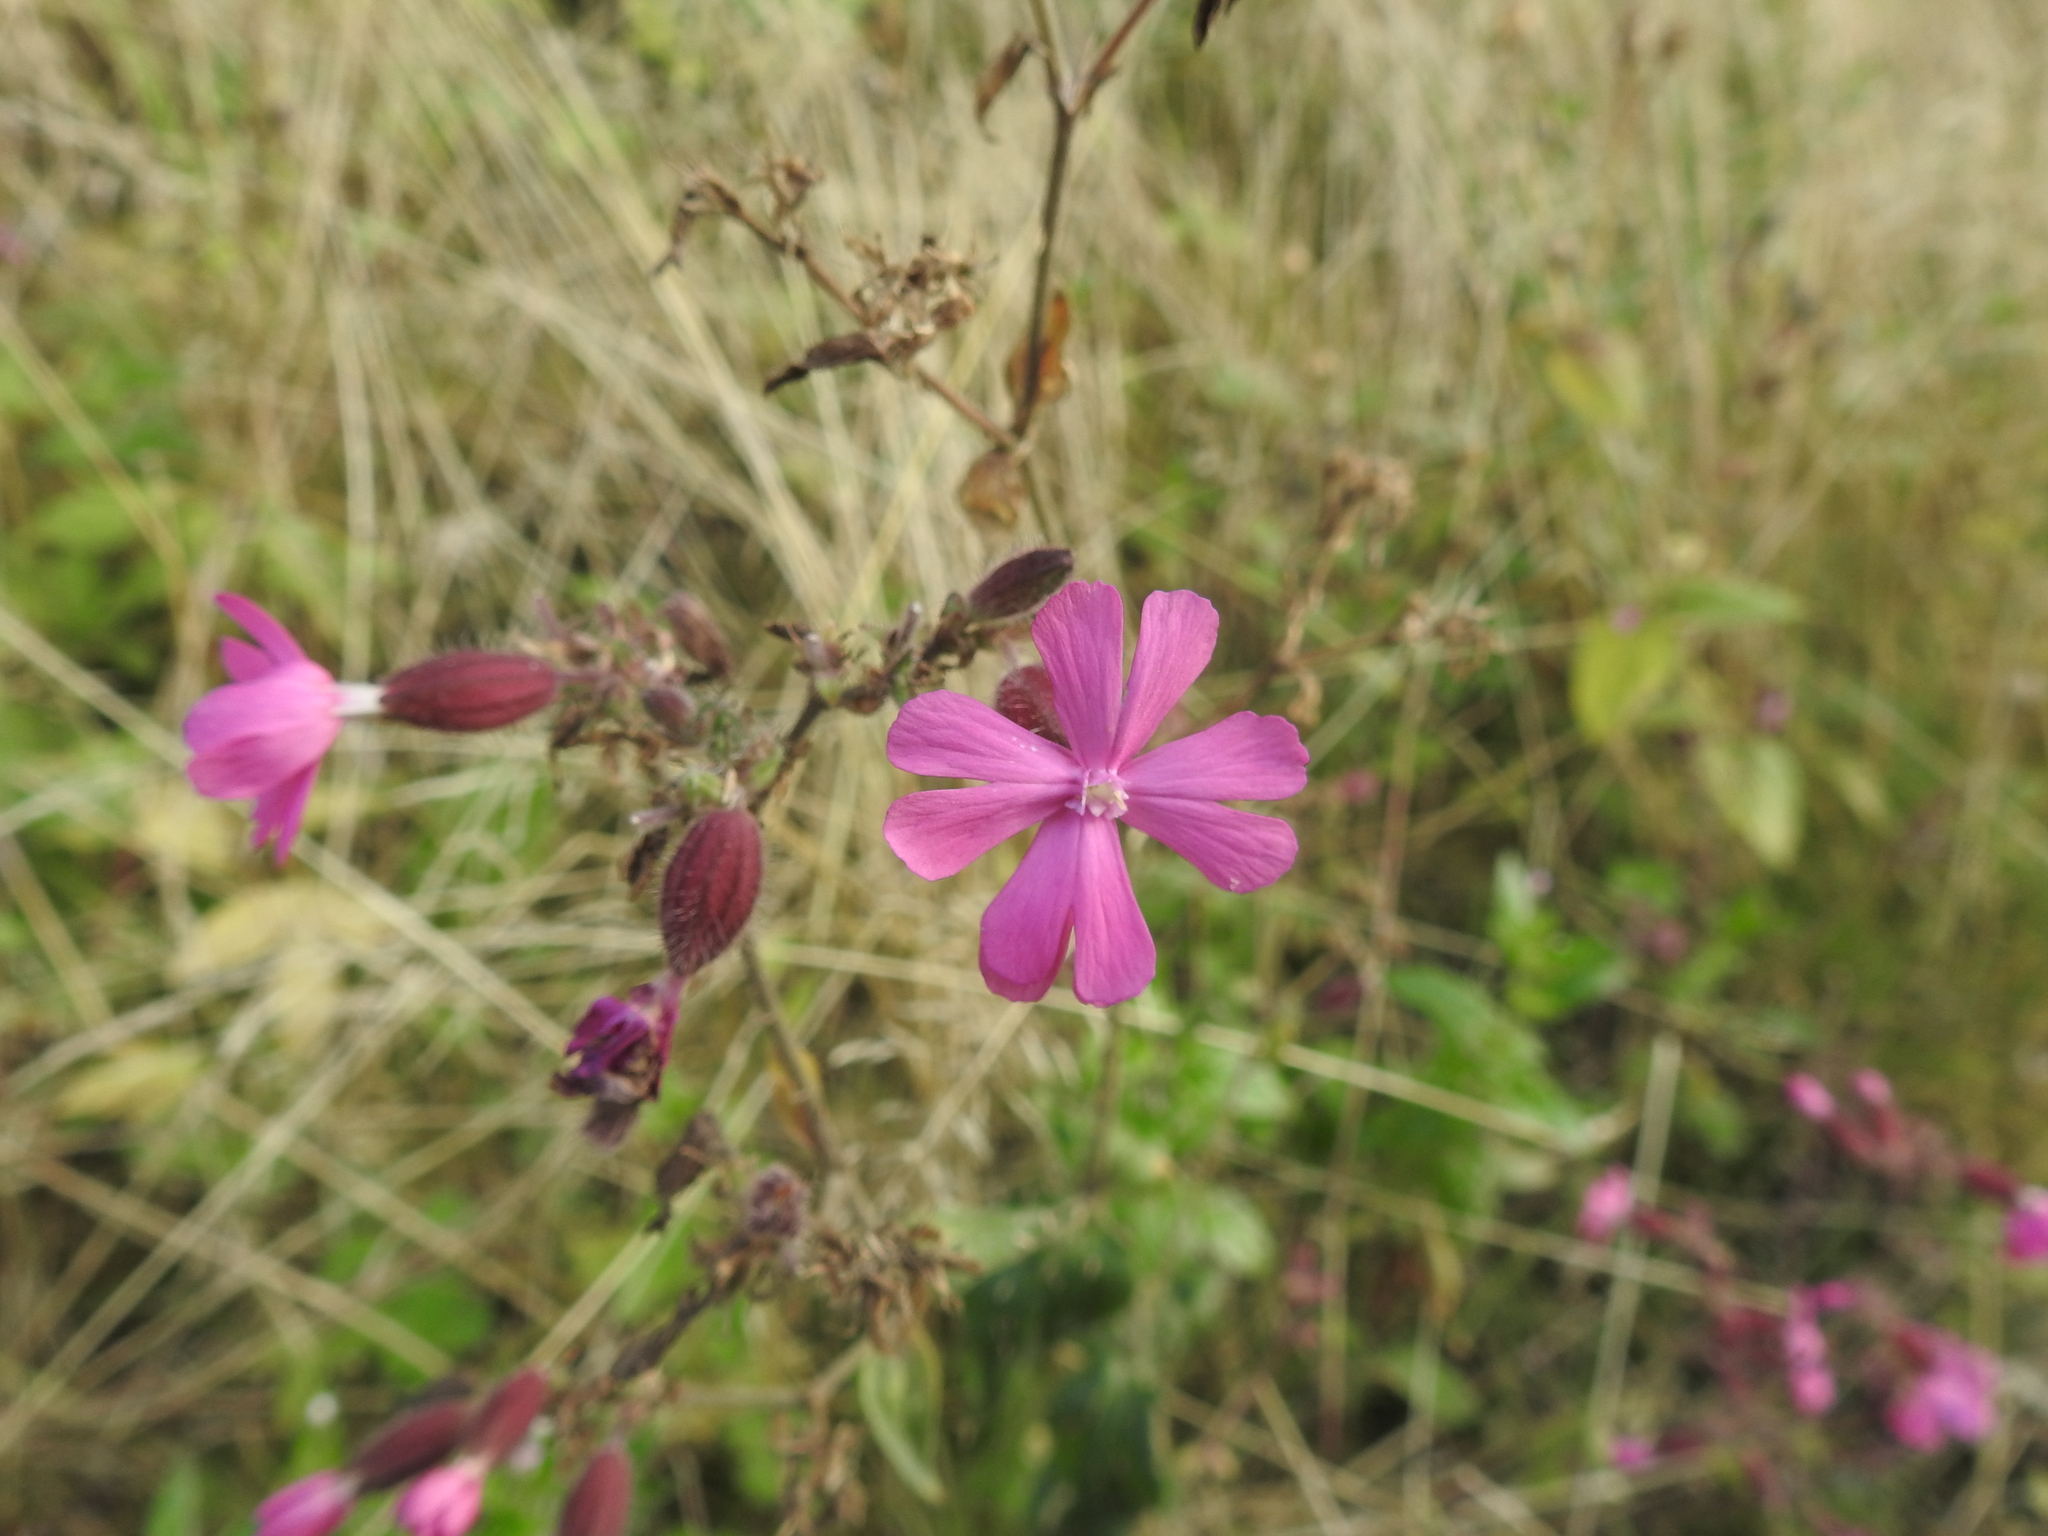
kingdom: Plantae
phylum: Tracheophyta
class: Magnoliopsida
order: Caryophyllales
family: Caryophyllaceae
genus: Silene
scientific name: Silene dioica
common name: Red campion
